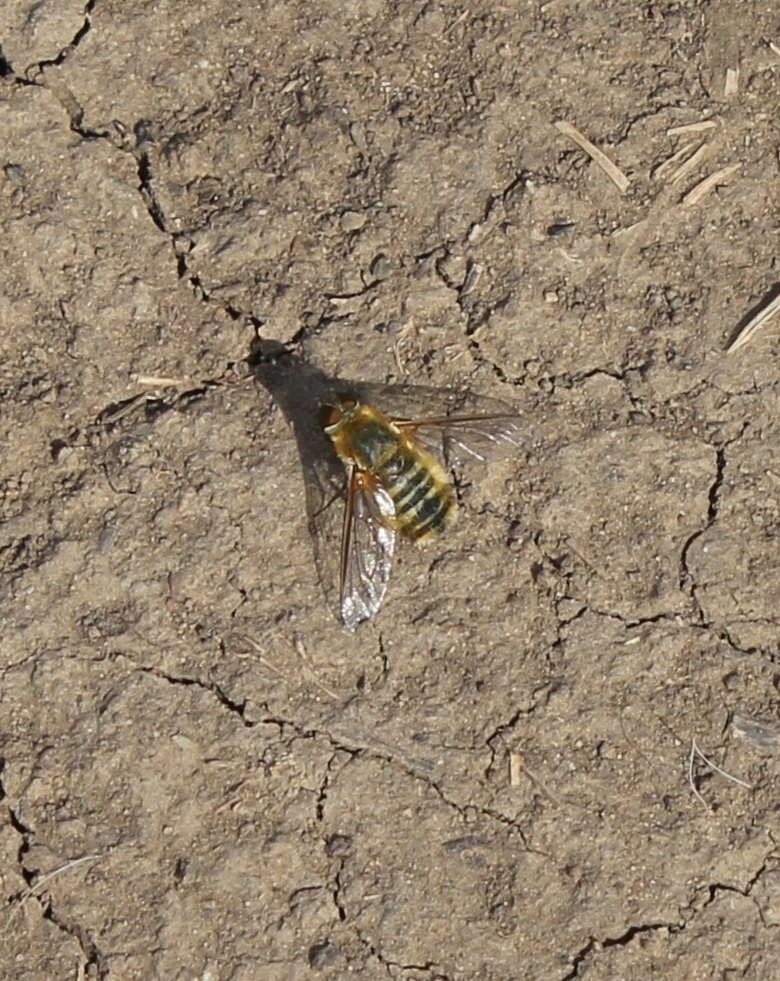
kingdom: Animalia
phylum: Arthropoda
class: Insecta
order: Diptera
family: Bombyliidae
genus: Villa
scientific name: Villa hottentotta
